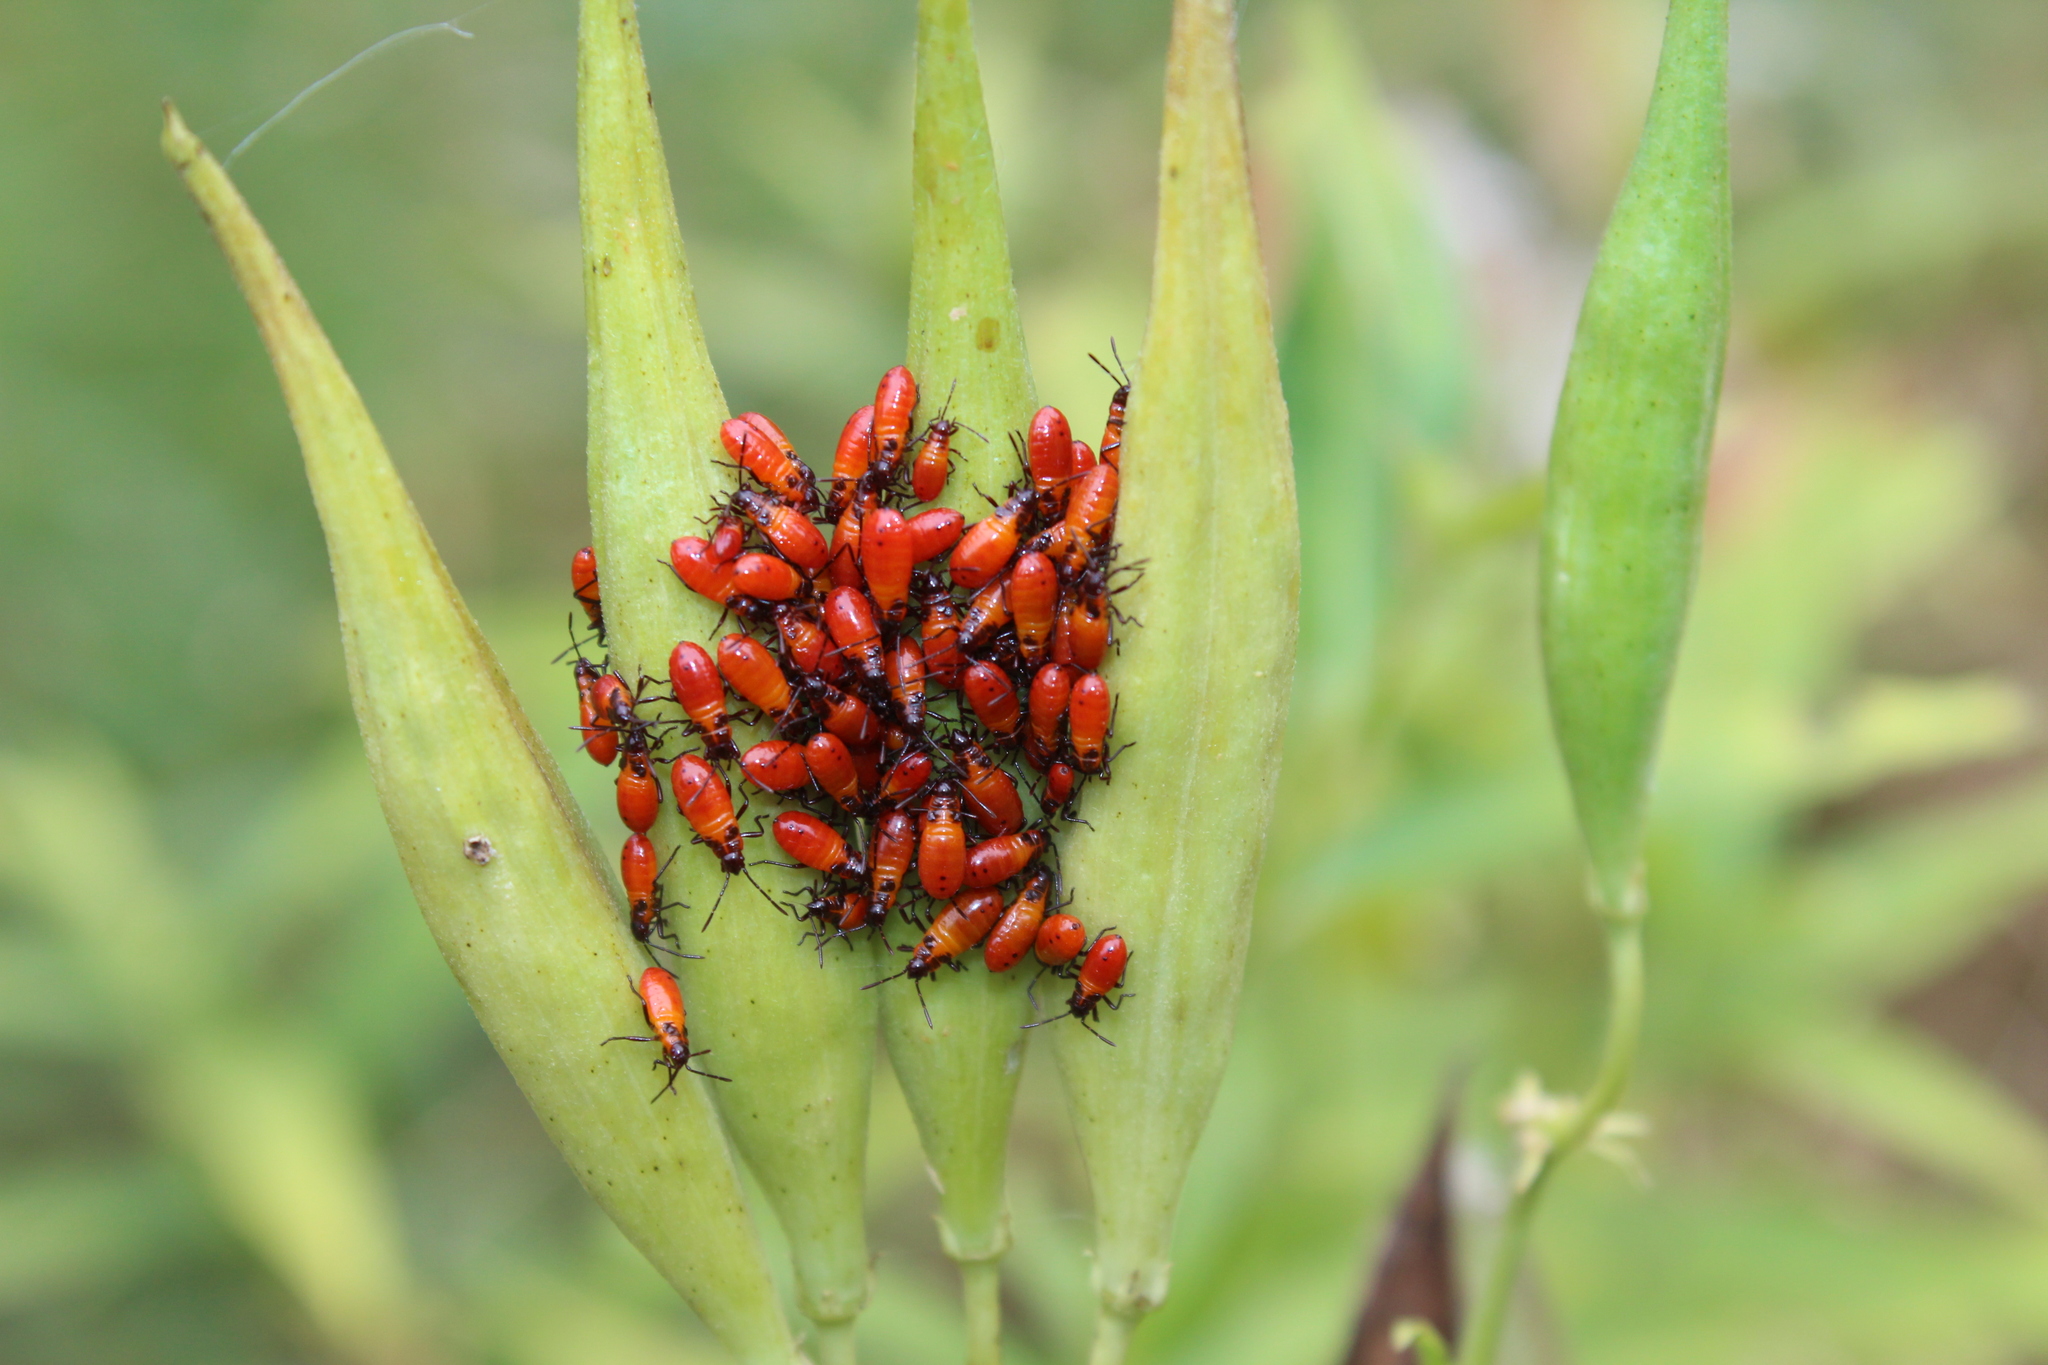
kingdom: Animalia
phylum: Arthropoda
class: Insecta
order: Hemiptera
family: Lygaeidae
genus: Oncopeltus
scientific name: Oncopeltus fasciatus
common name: Large milkweed bug
